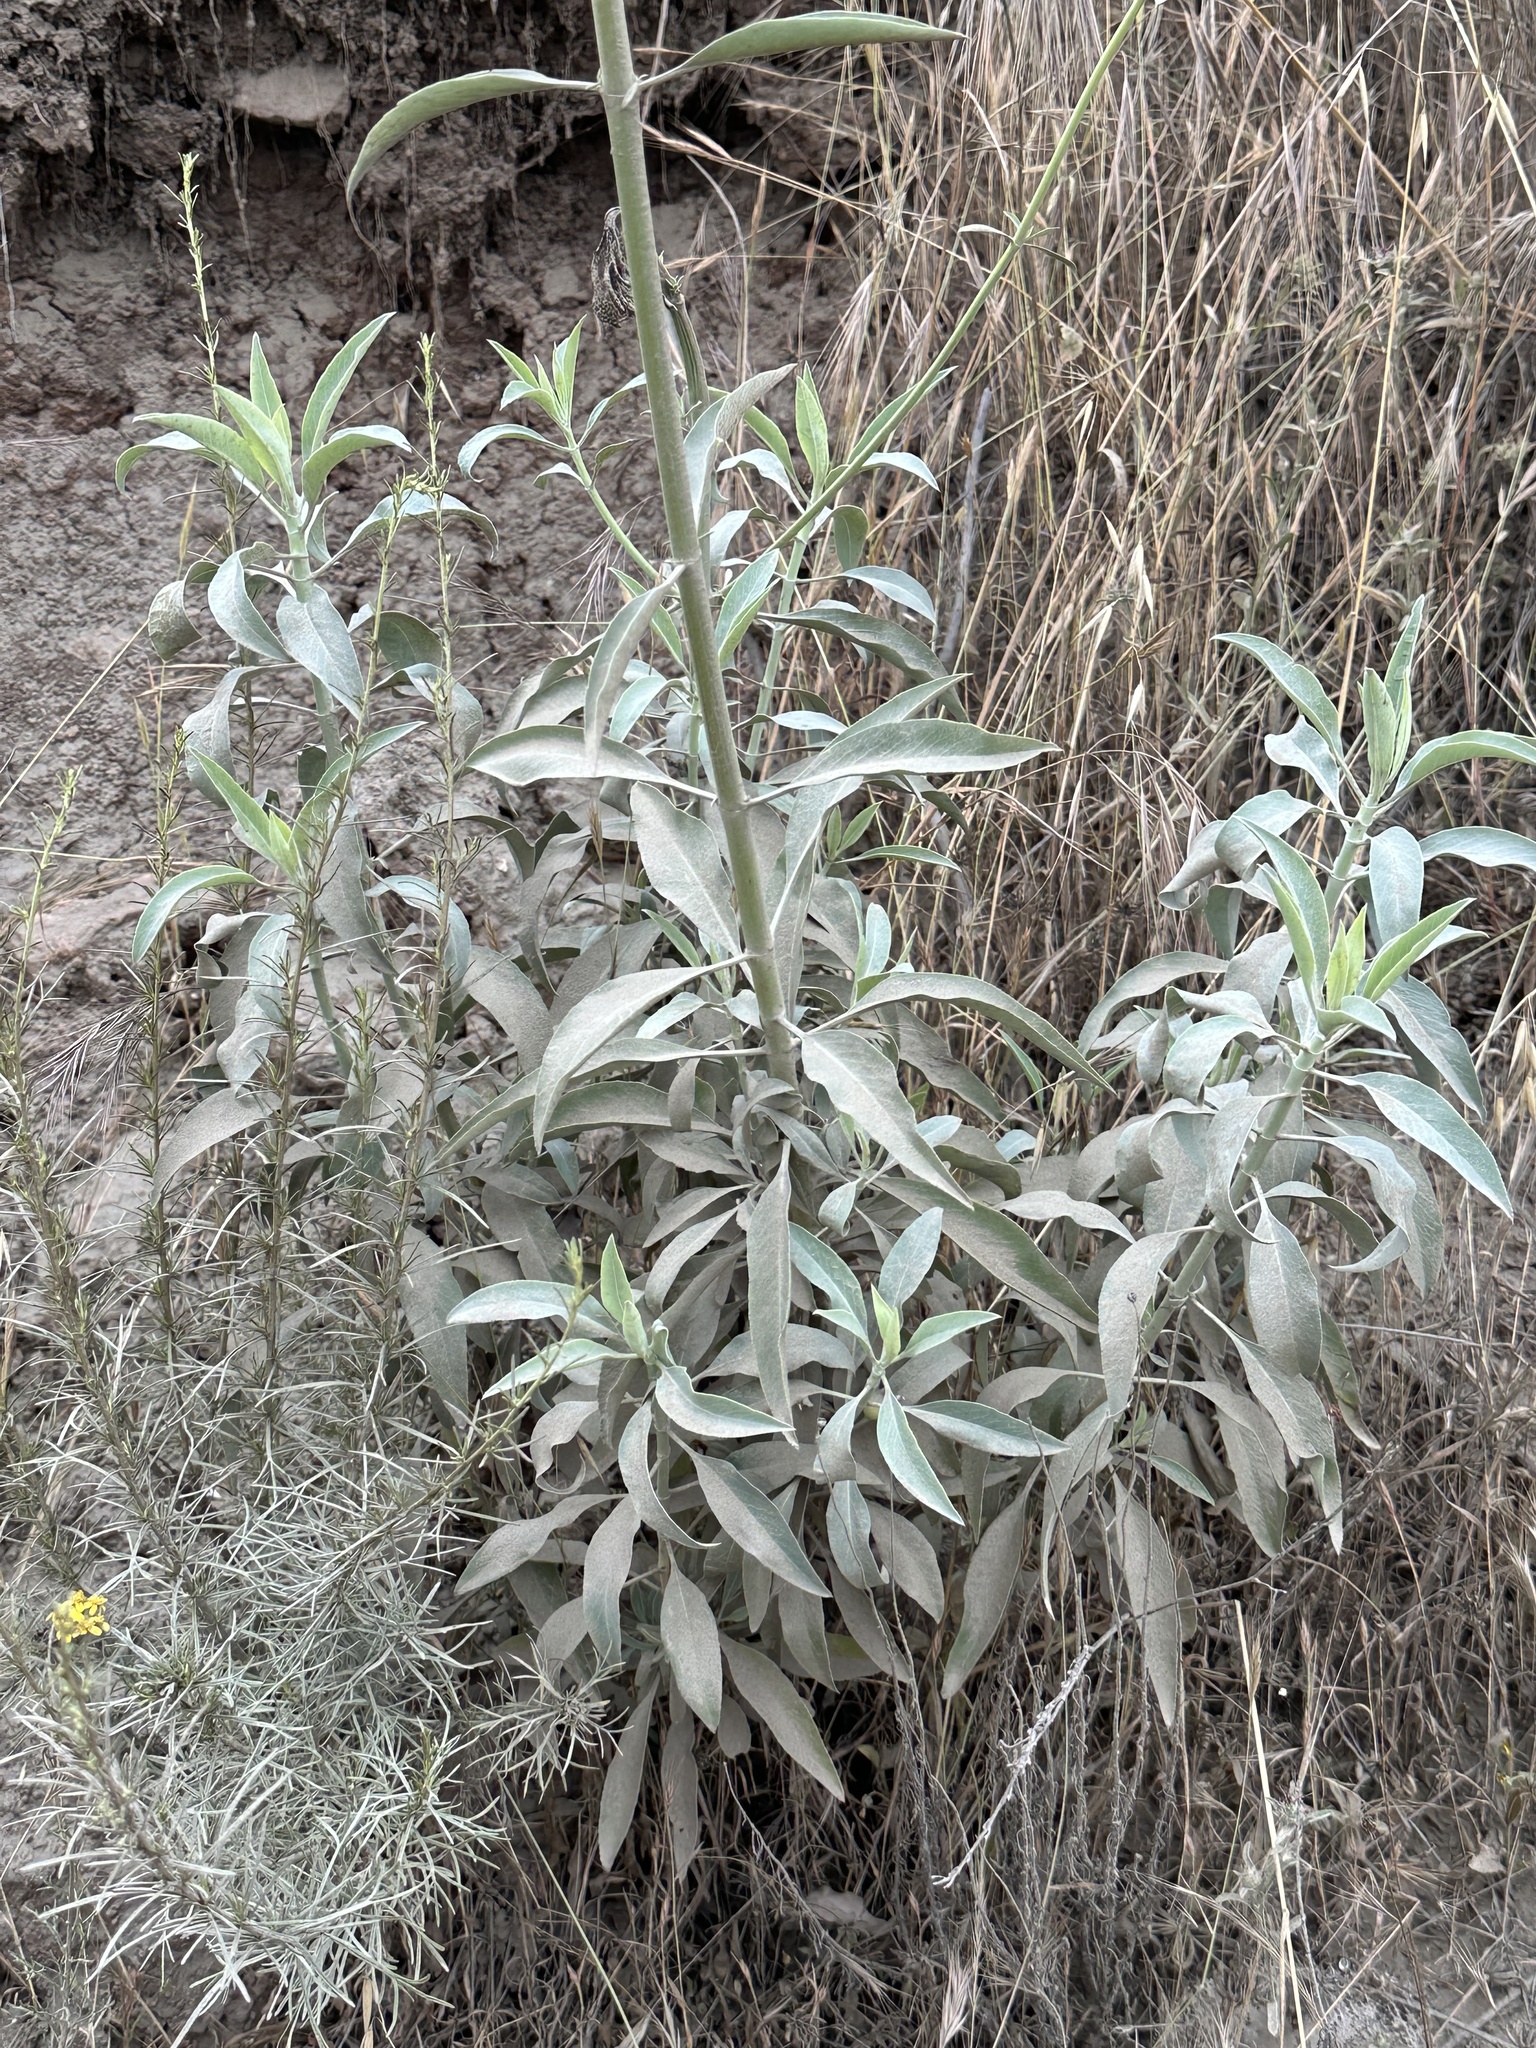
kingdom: Plantae
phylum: Tracheophyta
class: Magnoliopsida
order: Lamiales
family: Lamiaceae
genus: Salvia
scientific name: Salvia apiana
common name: White sage
